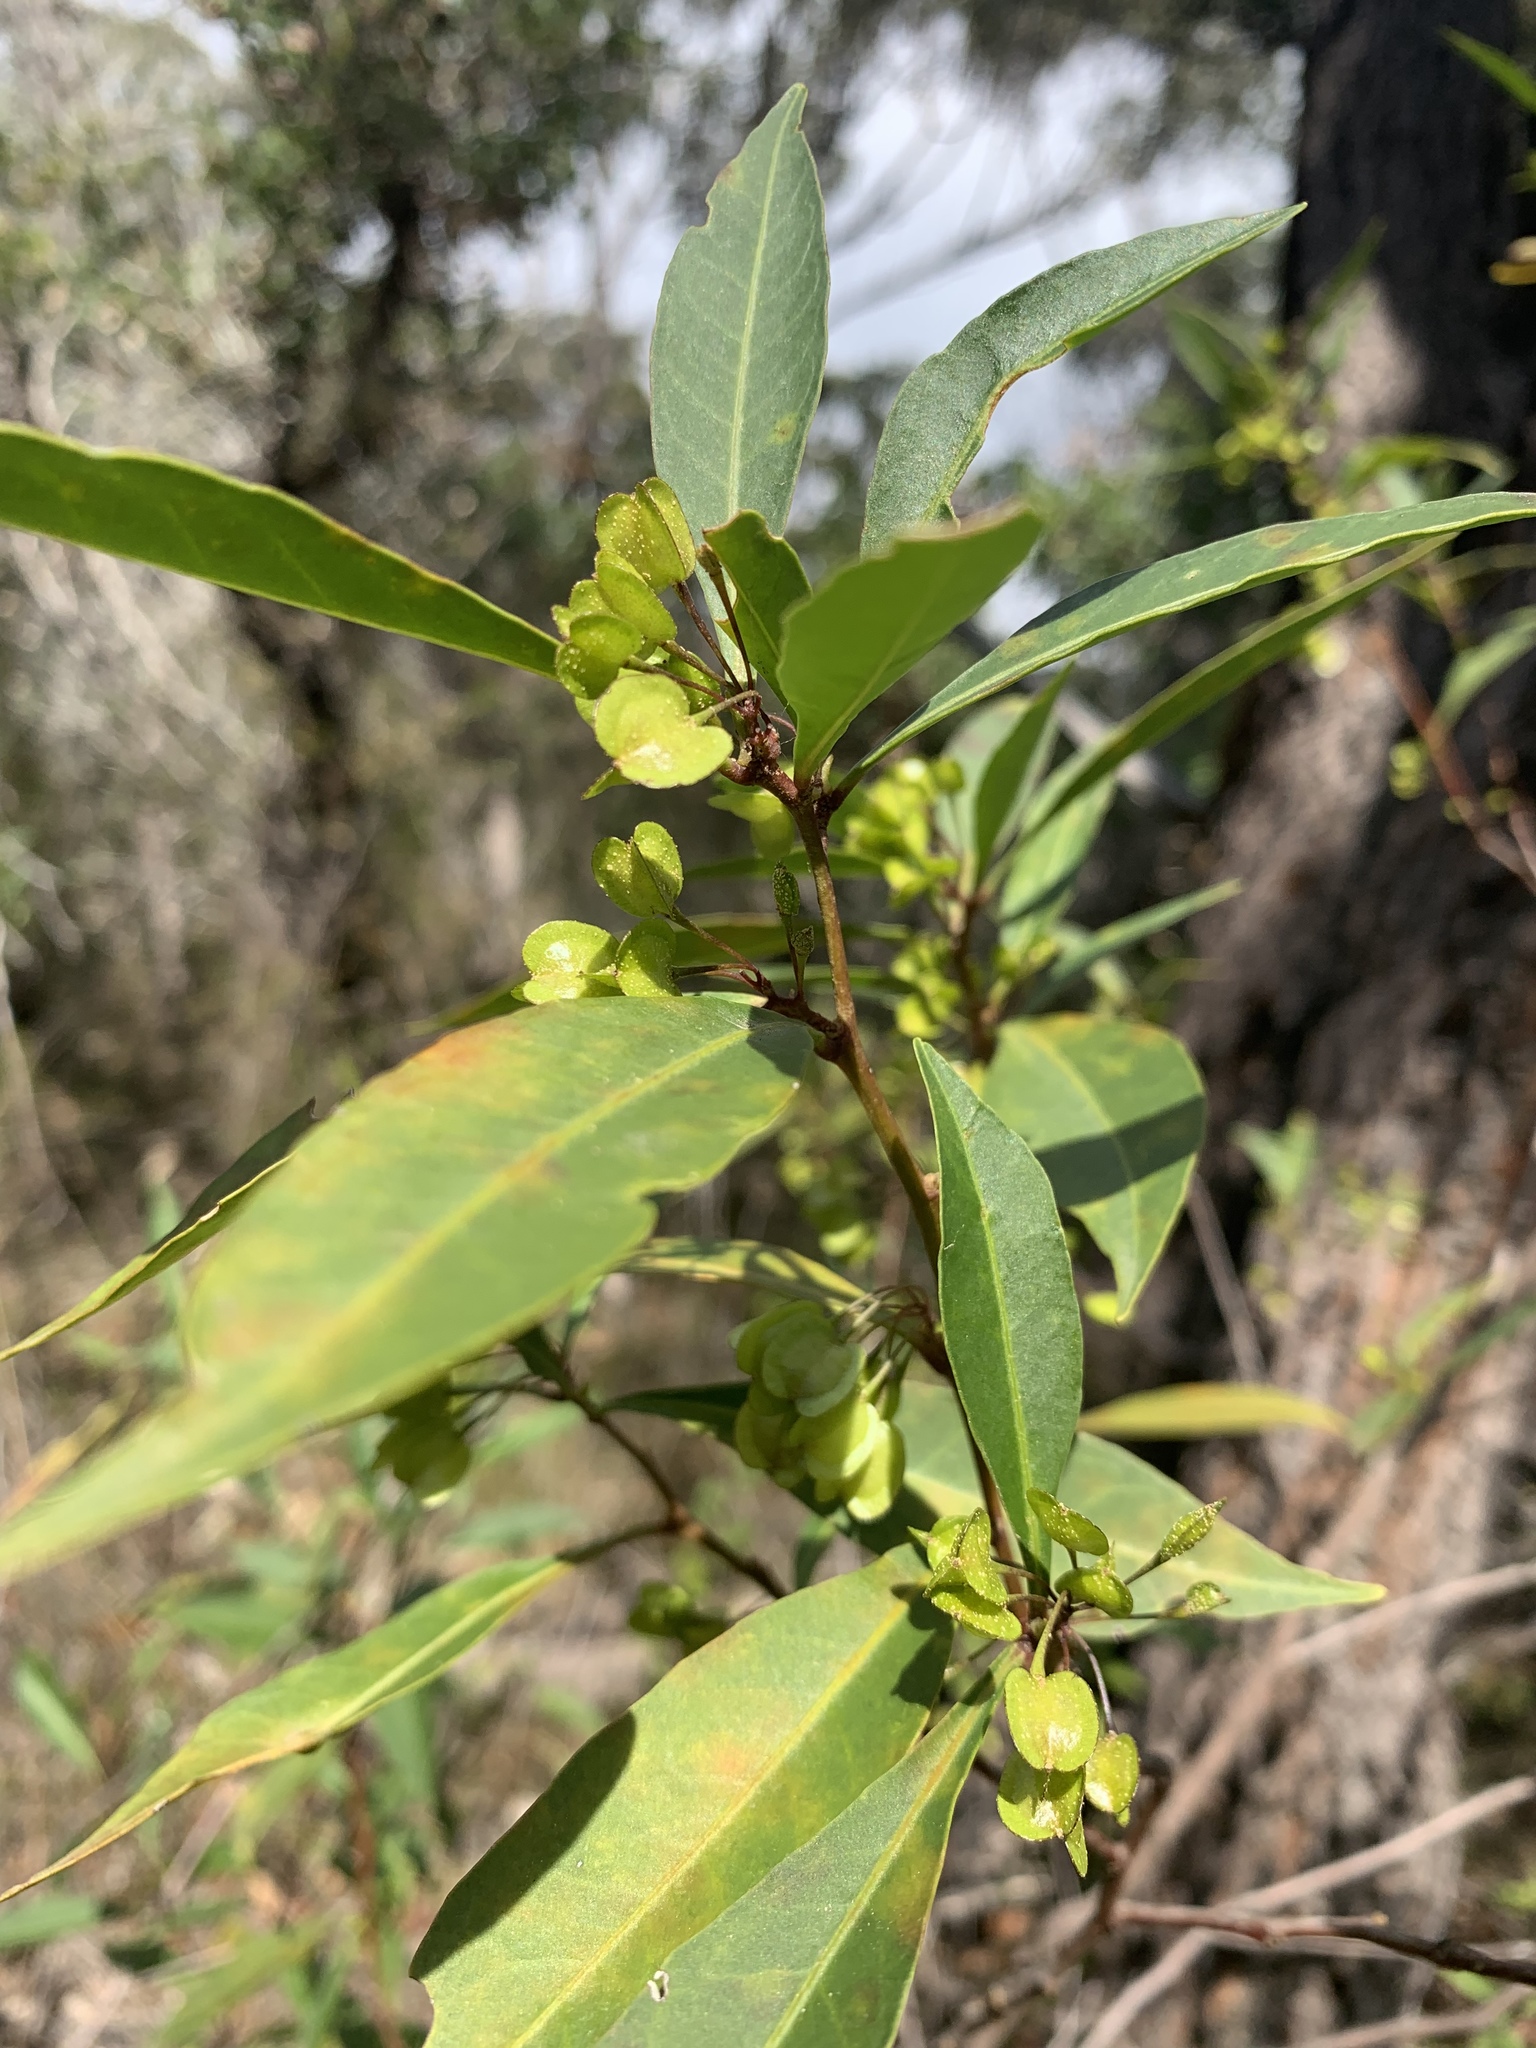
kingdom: Plantae
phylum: Tracheophyta
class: Magnoliopsida
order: Sapindales
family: Sapindaceae
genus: Dodonaea
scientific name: Dodonaea triquetra
